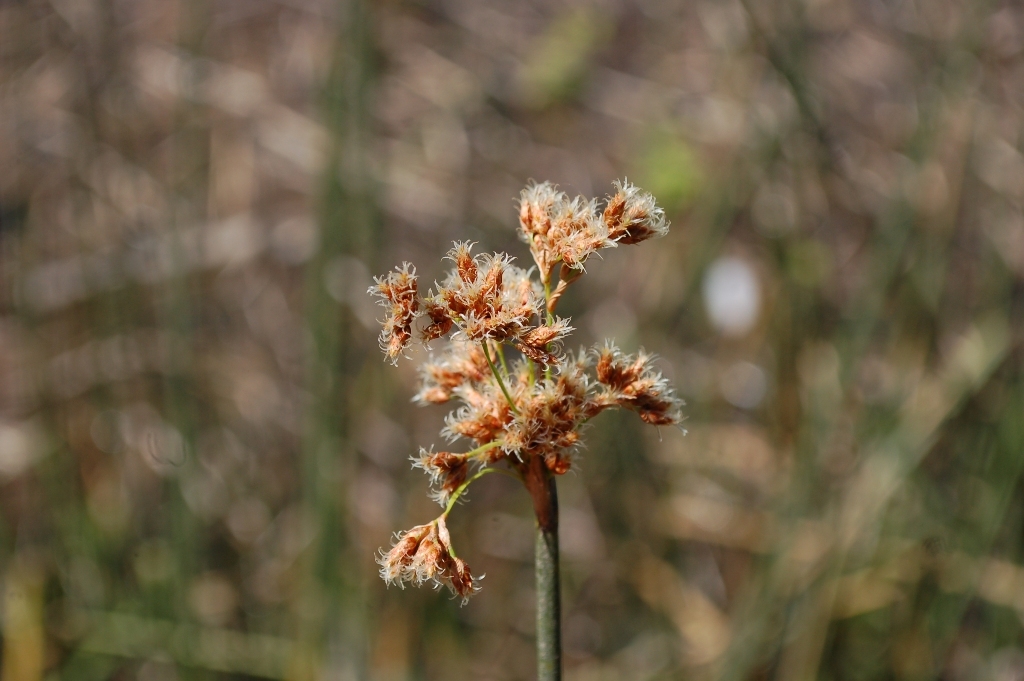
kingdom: Plantae
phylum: Tracheophyta
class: Liliopsida
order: Poales
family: Cyperaceae
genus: Schoenoplectus
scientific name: Schoenoplectus acutus
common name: Hardstem bulrush
